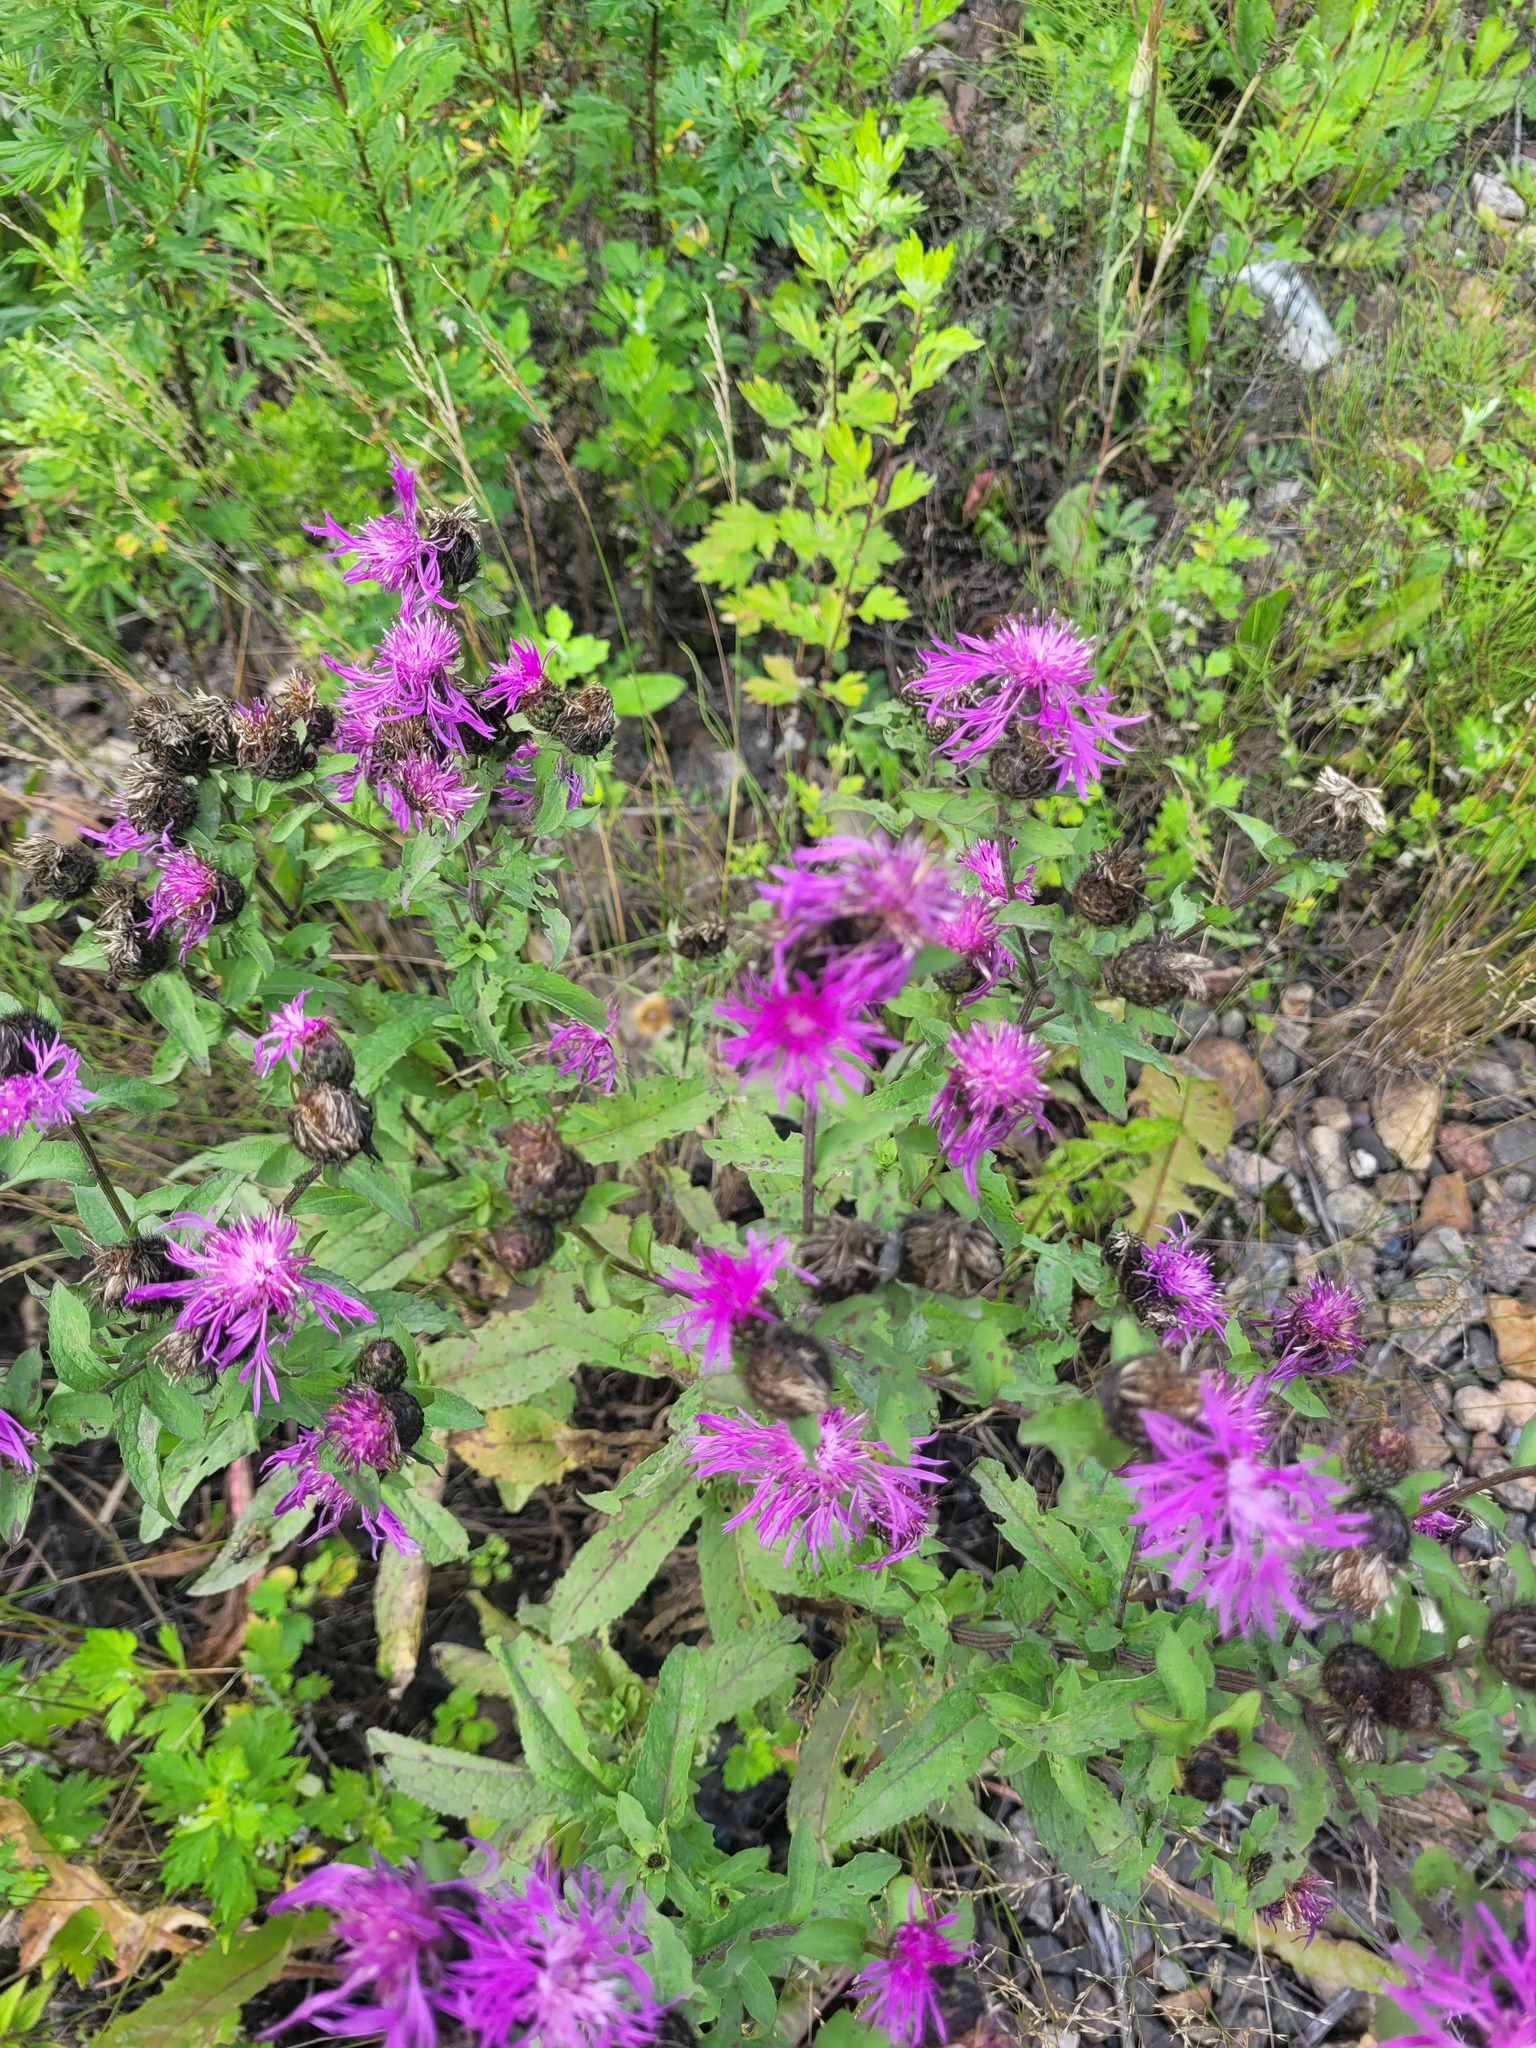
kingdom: Plantae
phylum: Tracheophyta
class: Magnoliopsida
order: Asterales
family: Asteraceae
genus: Centaurea
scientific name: Centaurea phrygia
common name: Wig knapweed
